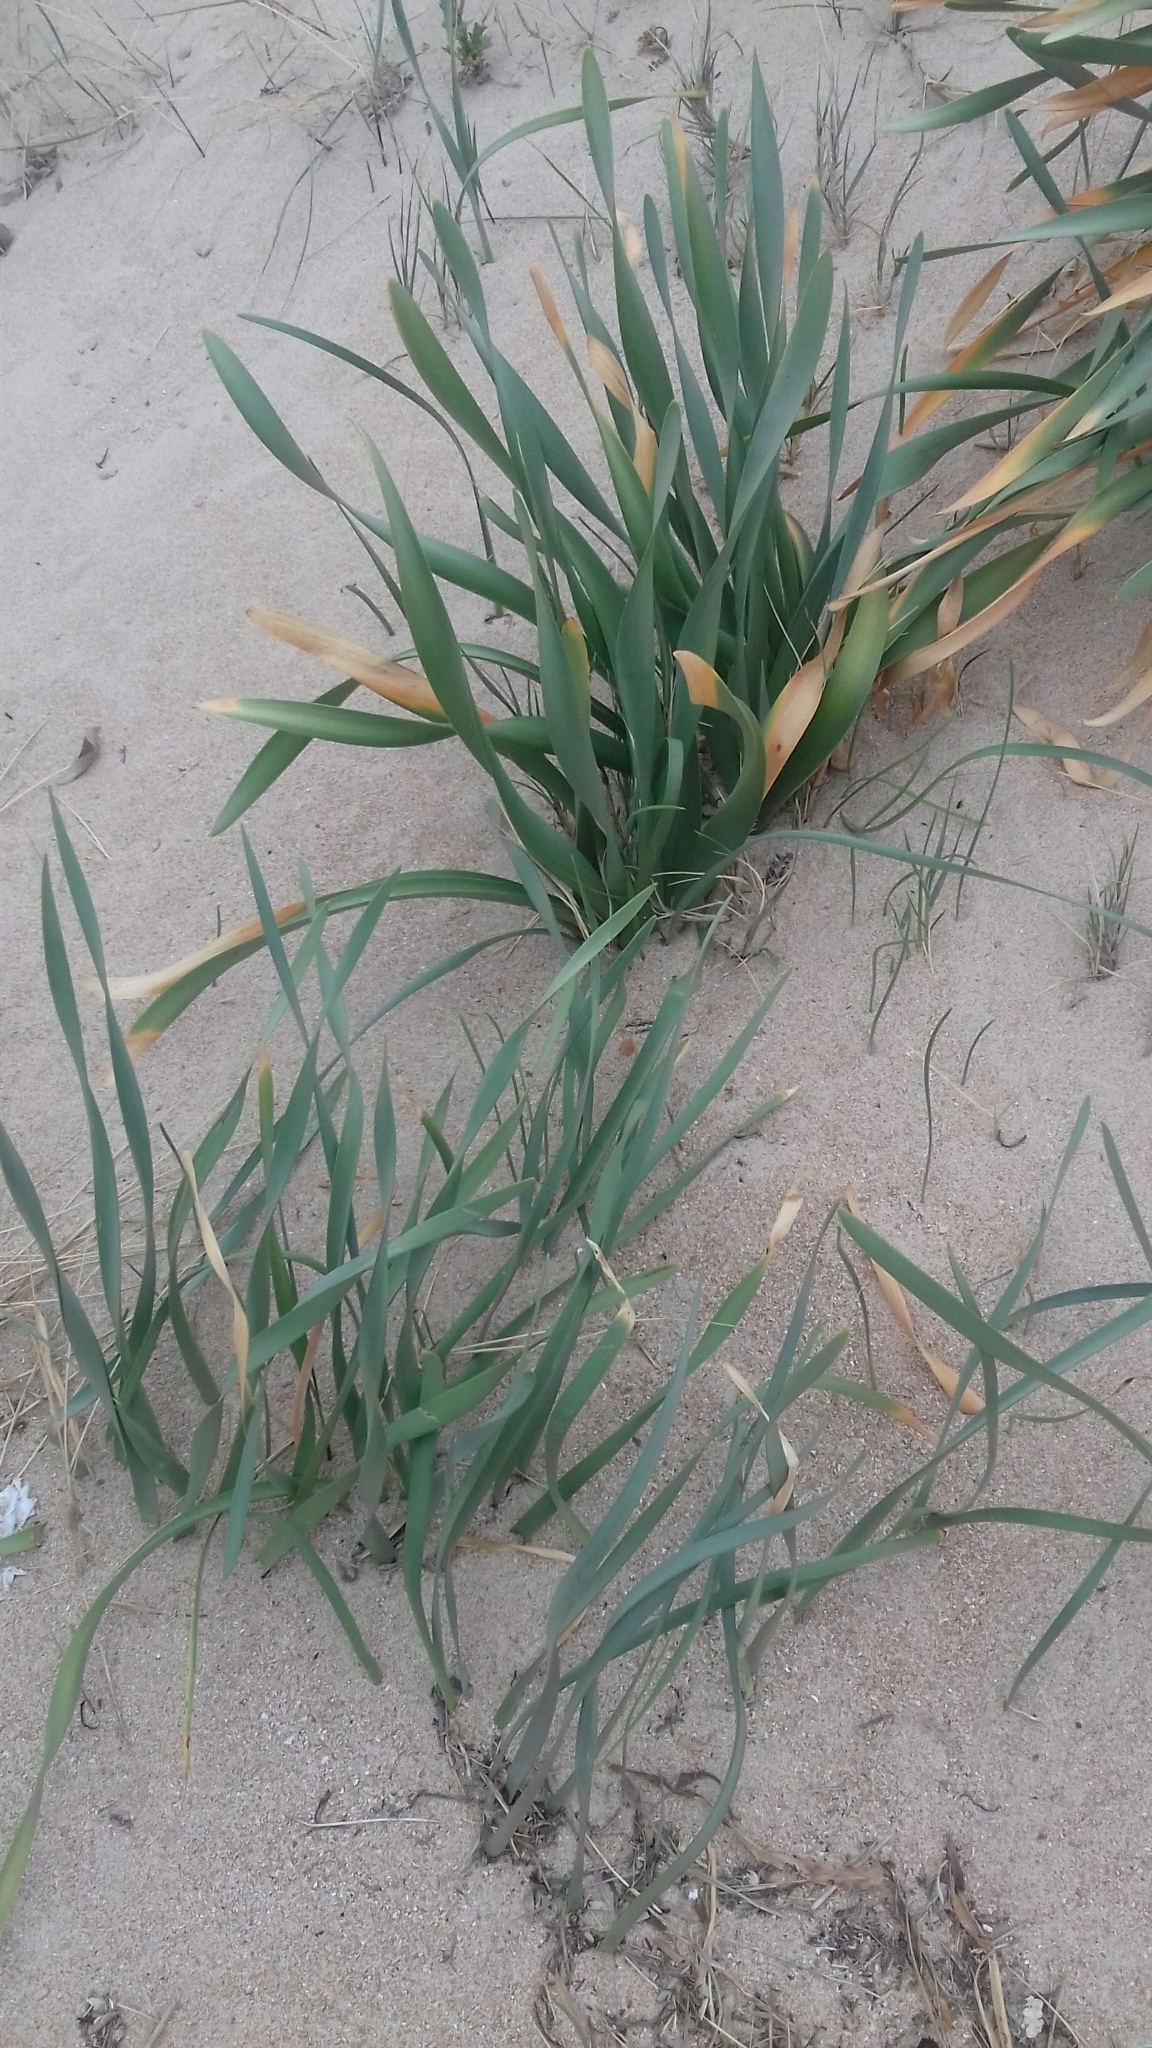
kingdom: Plantae
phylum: Tracheophyta
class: Liliopsida
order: Asparagales
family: Amaryllidaceae
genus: Pancratium
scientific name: Pancratium maritimum
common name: Sea-daffodil
